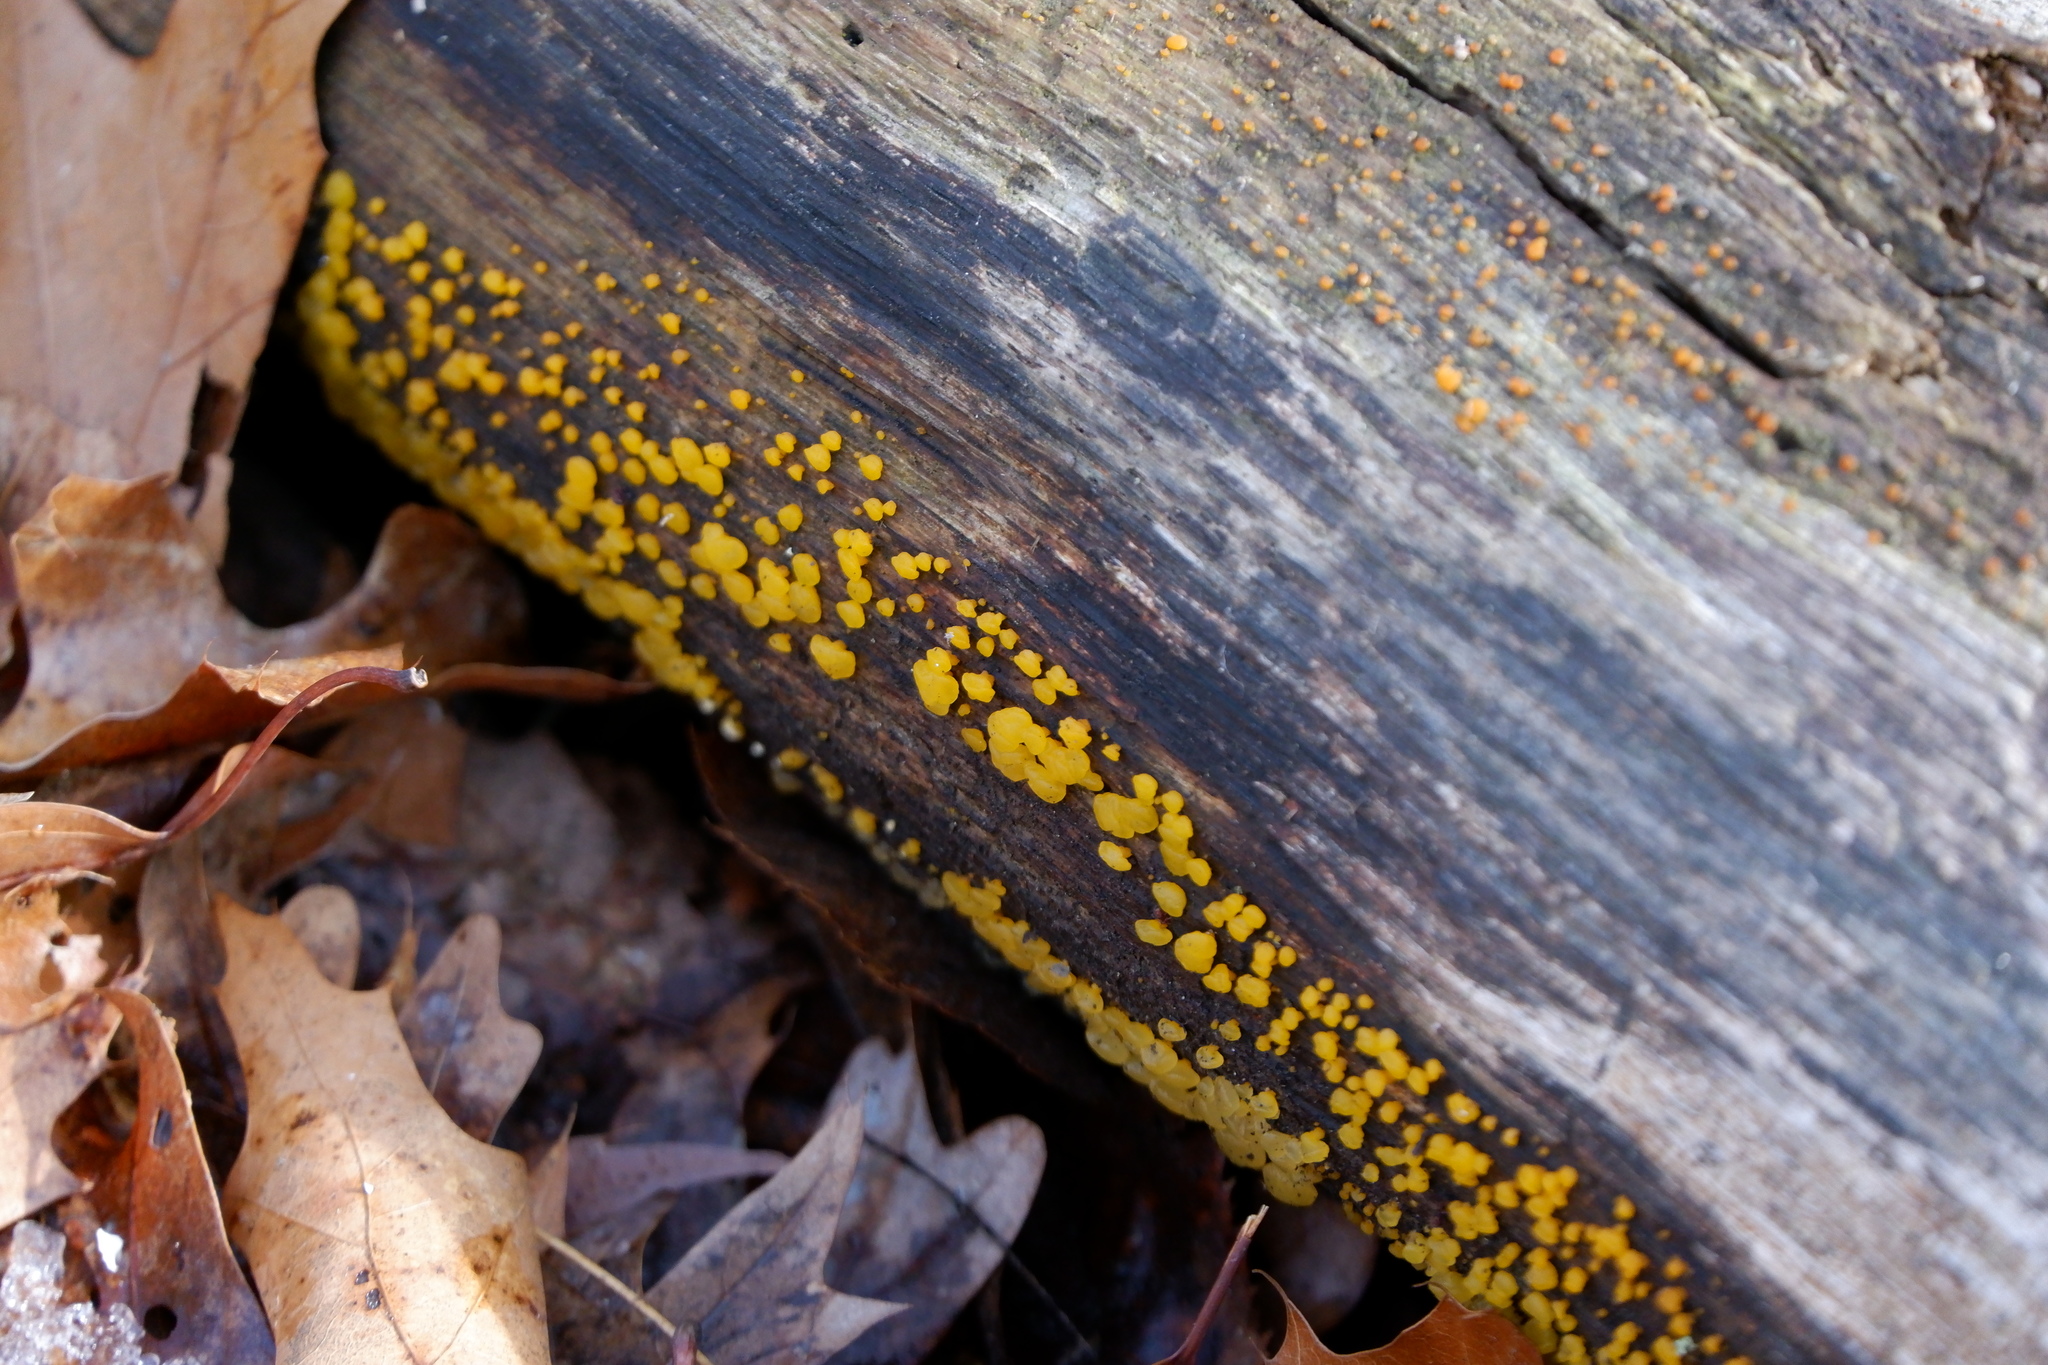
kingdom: Fungi
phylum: Basidiomycota
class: Dacrymycetes
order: Dacrymycetales
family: Dacrymycetaceae
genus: Dacrymyces
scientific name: Dacrymyces capitatus
